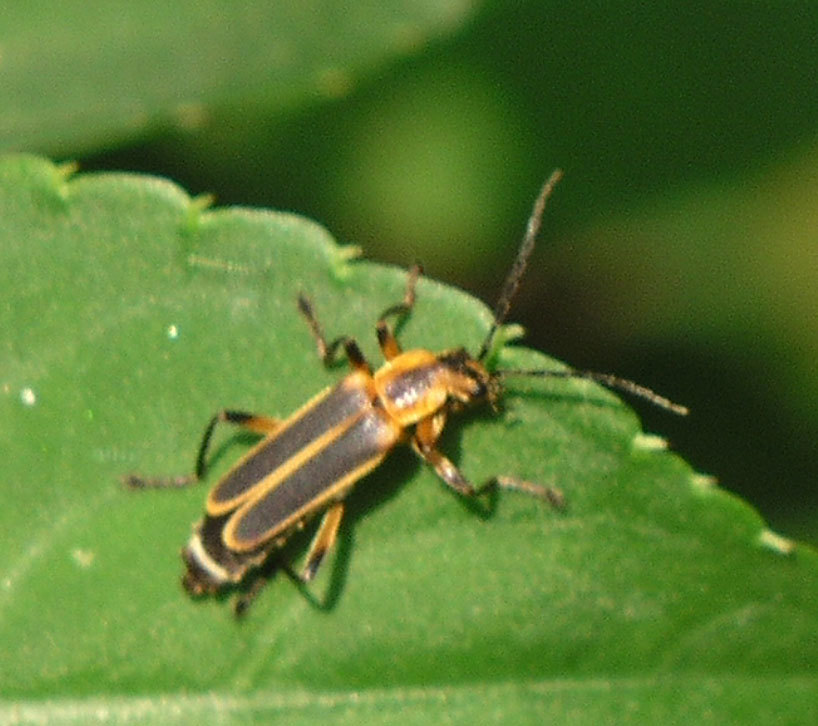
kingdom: Animalia
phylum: Arthropoda
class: Insecta
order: Coleoptera
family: Cantharidae
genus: Chauliognathus
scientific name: Chauliognathus marginatus
